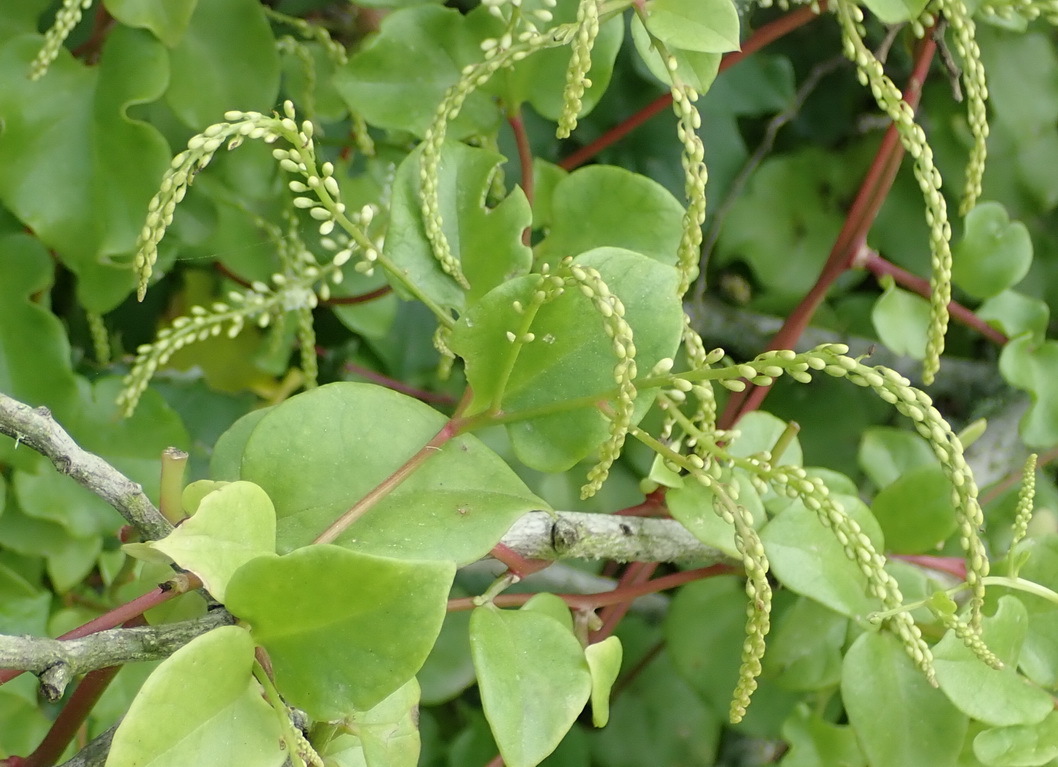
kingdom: Plantae
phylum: Tracheophyta
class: Magnoliopsida
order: Caryophyllales
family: Basellaceae
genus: Anredera
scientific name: Anredera cordifolia
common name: Heartleaf madeiravine
